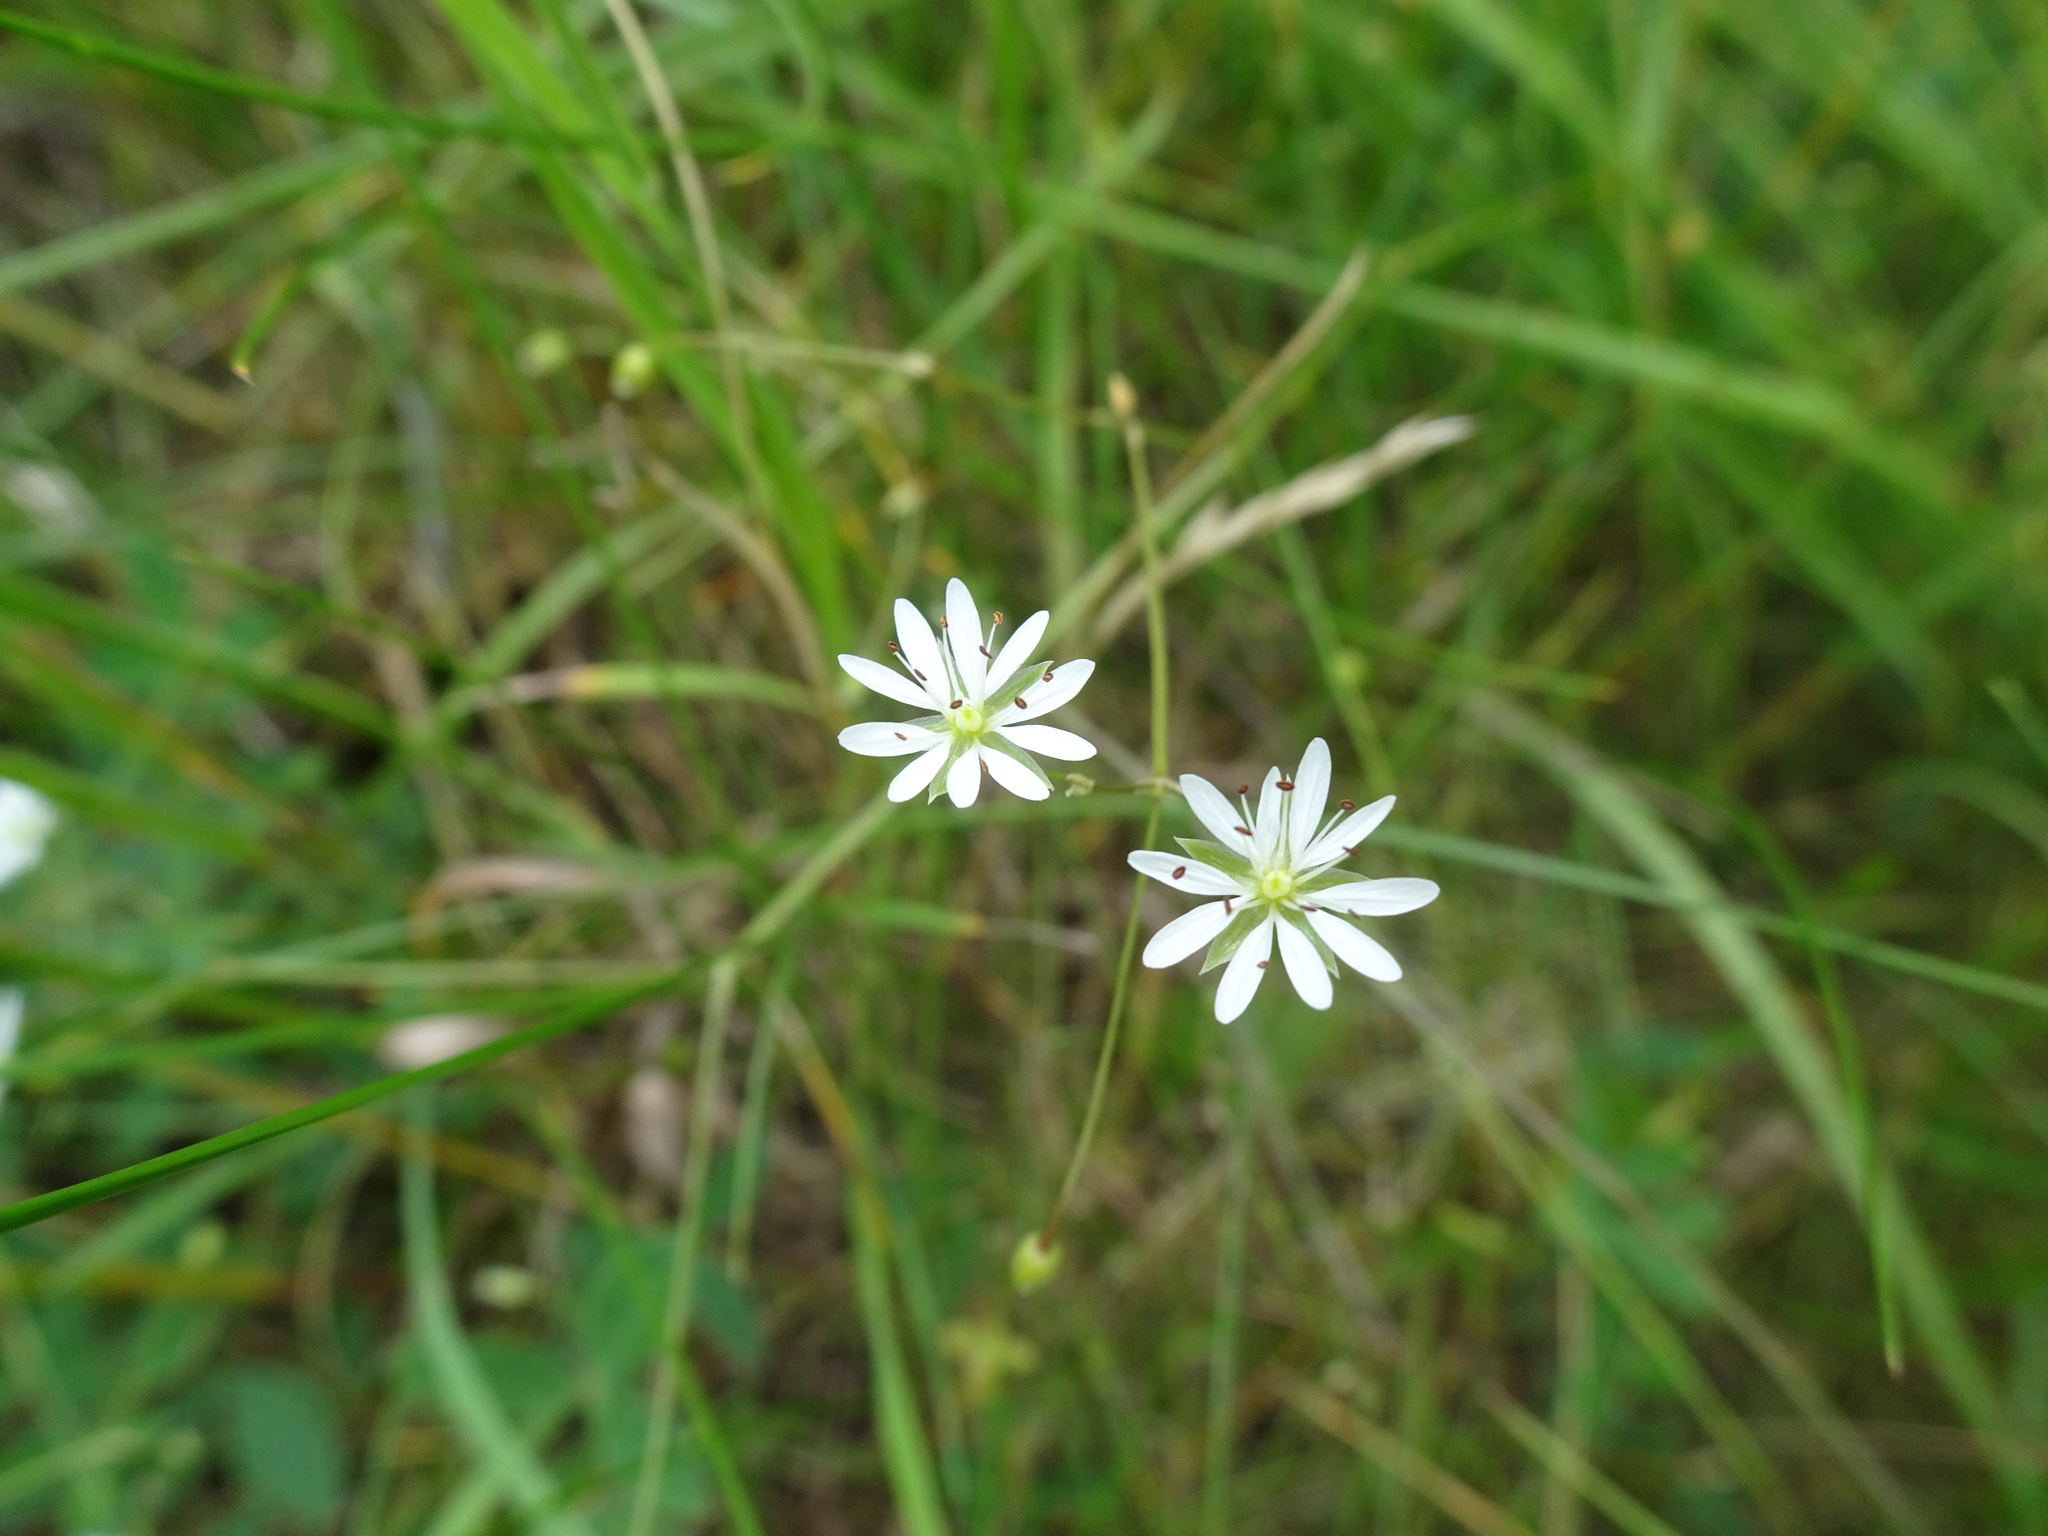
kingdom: Plantae
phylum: Tracheophyta
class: Magnoliopsida
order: Caryophyllales
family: Caryophyllaceae
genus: Stellaria
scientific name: Stellaria graminea
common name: Grass-like starwort
